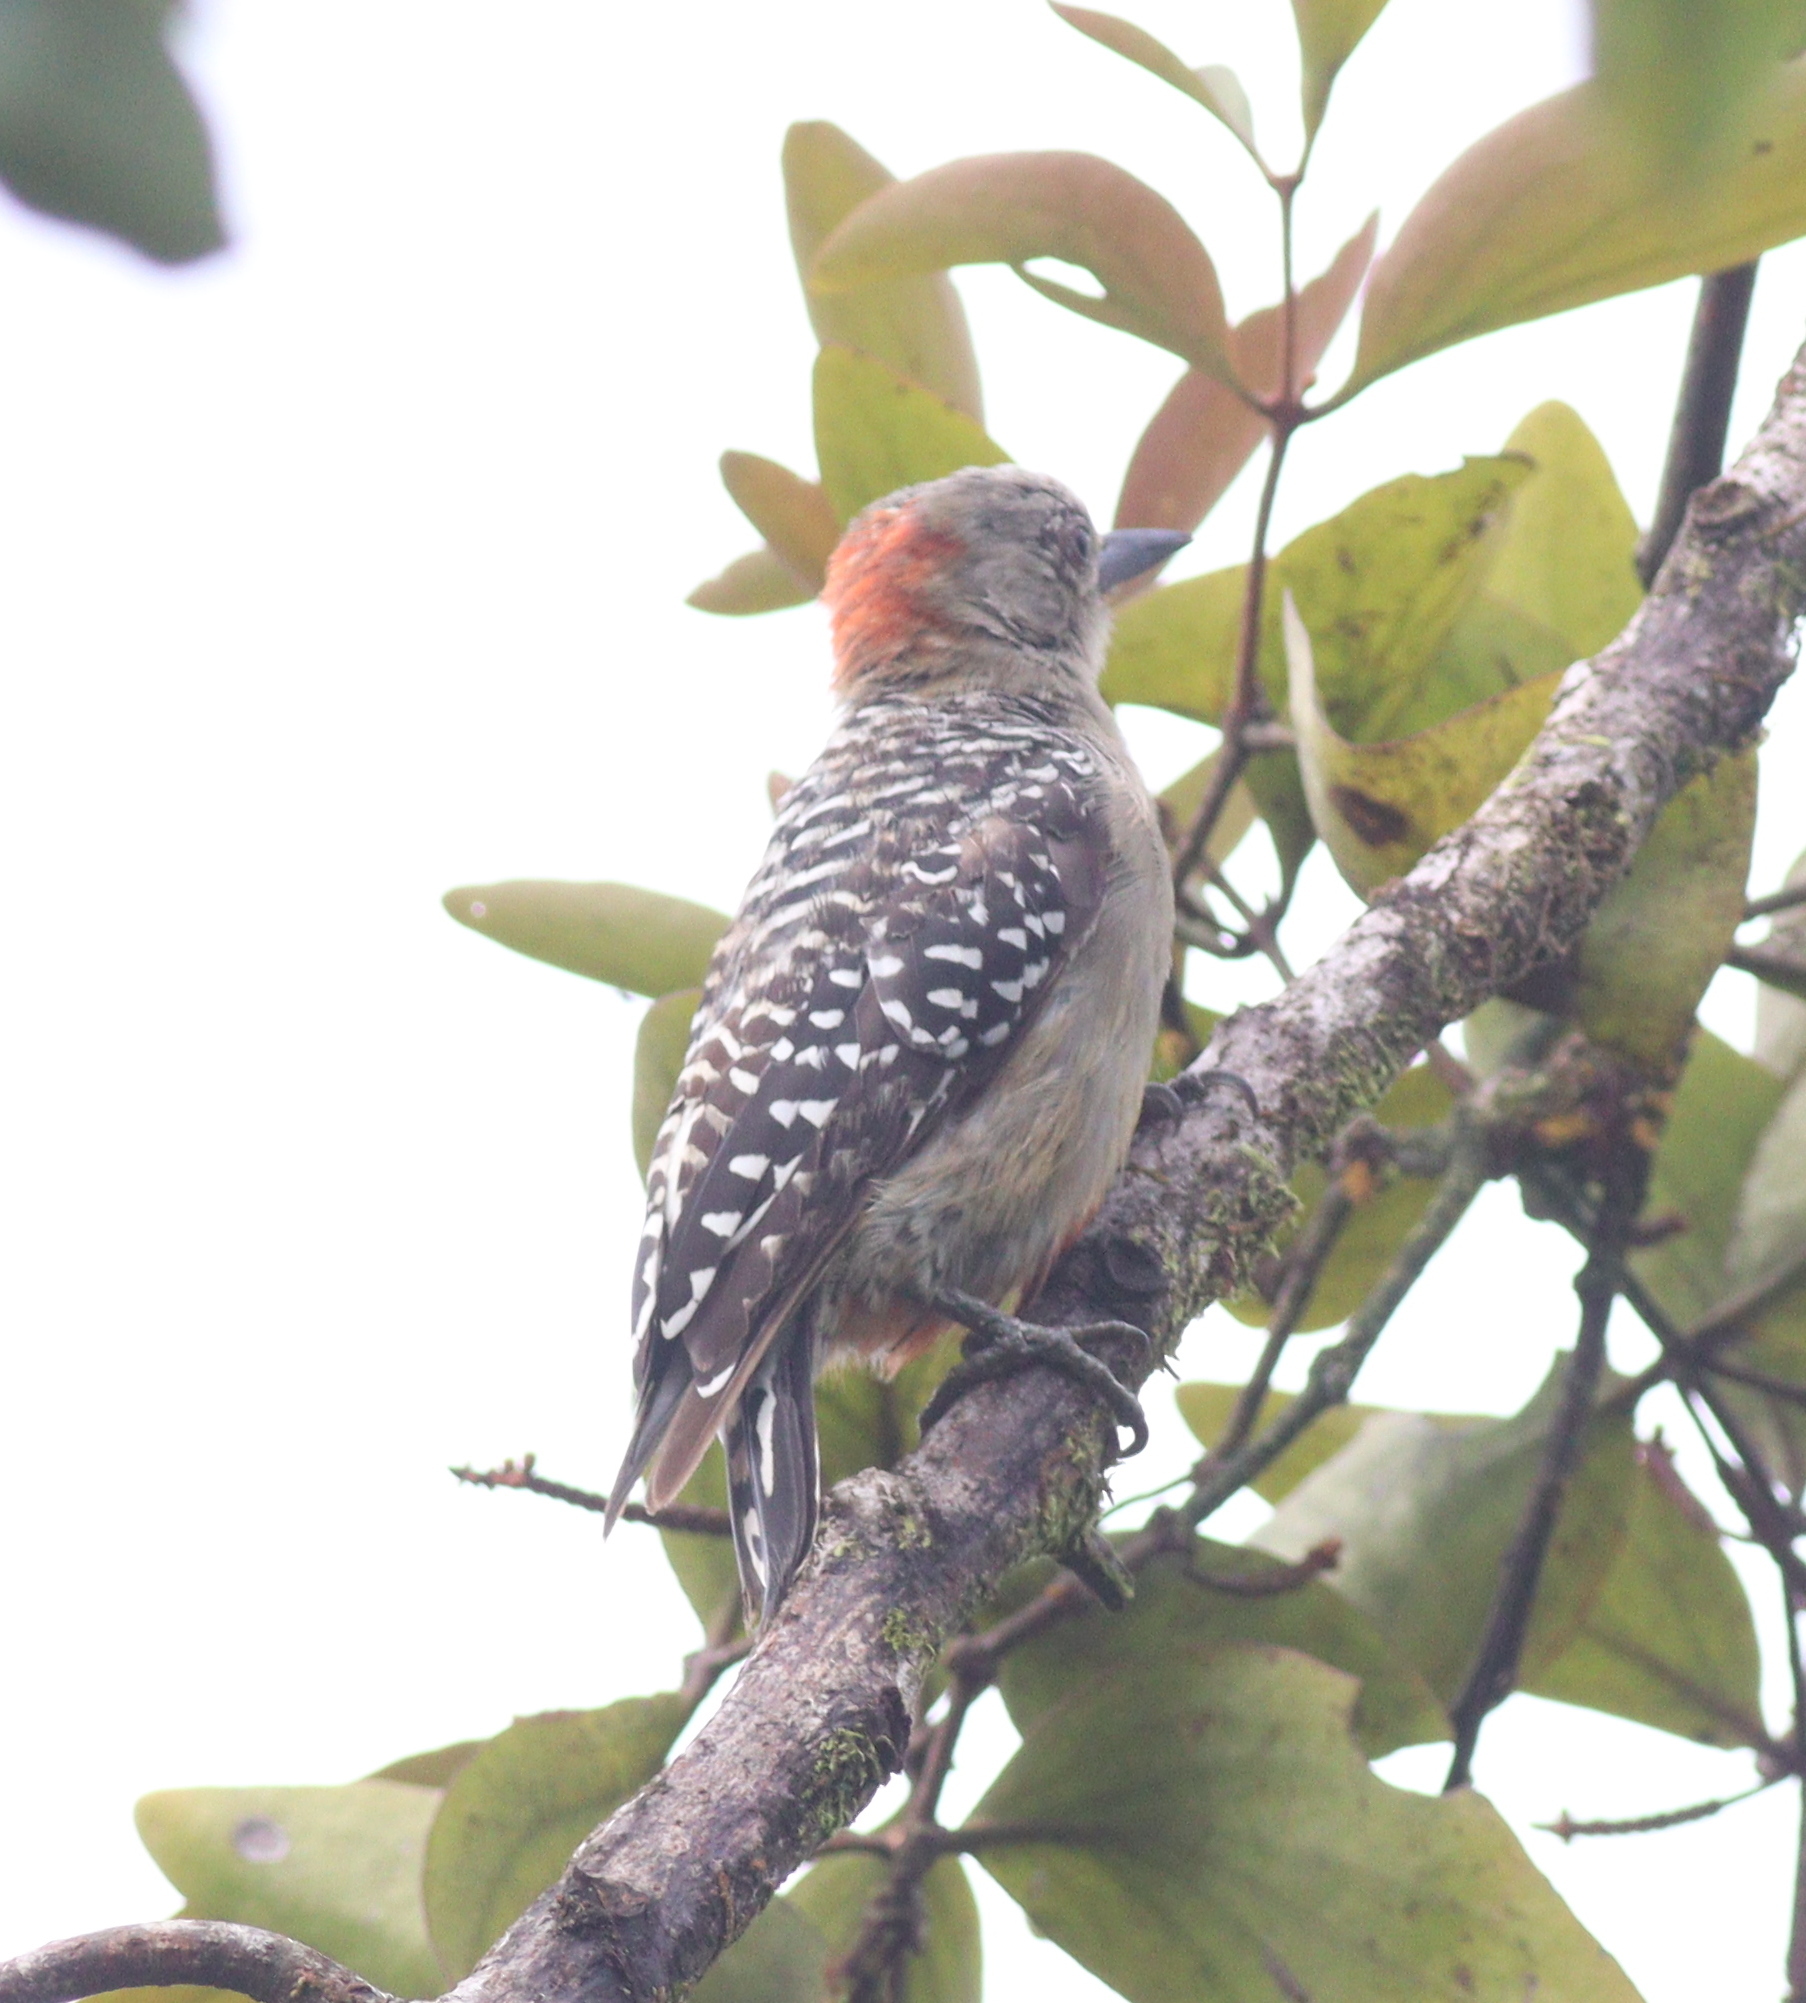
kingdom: Animalia
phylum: Chordata
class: Aves
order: Piciformes
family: Picidae
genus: Melanerpes
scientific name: Melanerpes rubricapillus
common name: Red-crowned woodpecker
